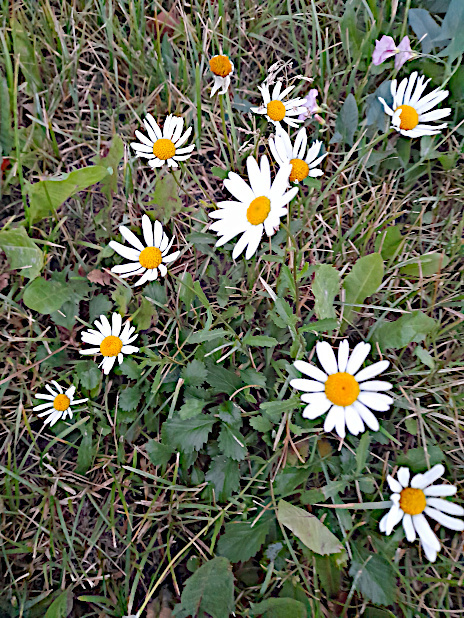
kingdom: Plantae
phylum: Tracheophyta
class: Magnoliopsida
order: Asterales
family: Asteraceae
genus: Leucanthemum
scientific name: Leucanthemum vulgare
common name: Oxeye daisy
